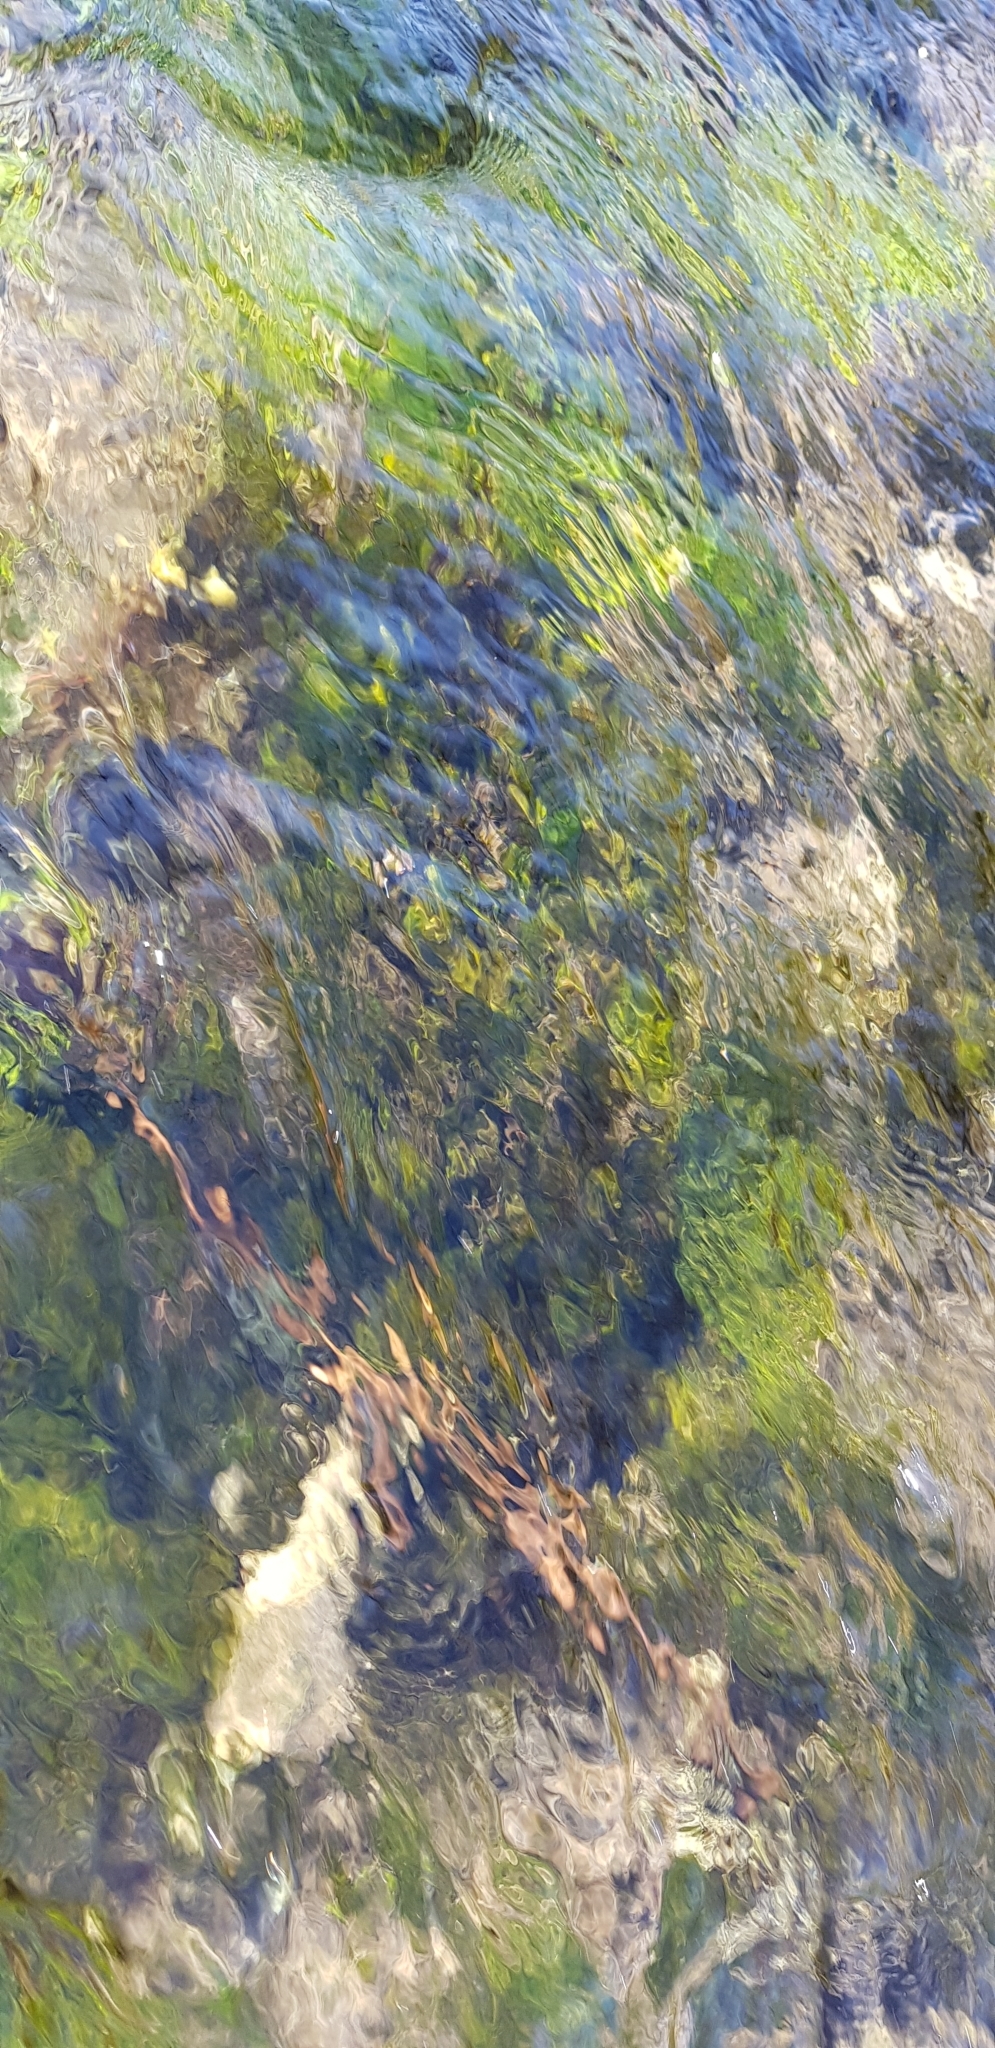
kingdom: Plantae
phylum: Bryophyta
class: Bryopsida
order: Hypnales
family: Fontinalaceae
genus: Fontinalis
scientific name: Fontinalis antipyretica
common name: Greater water-moss
